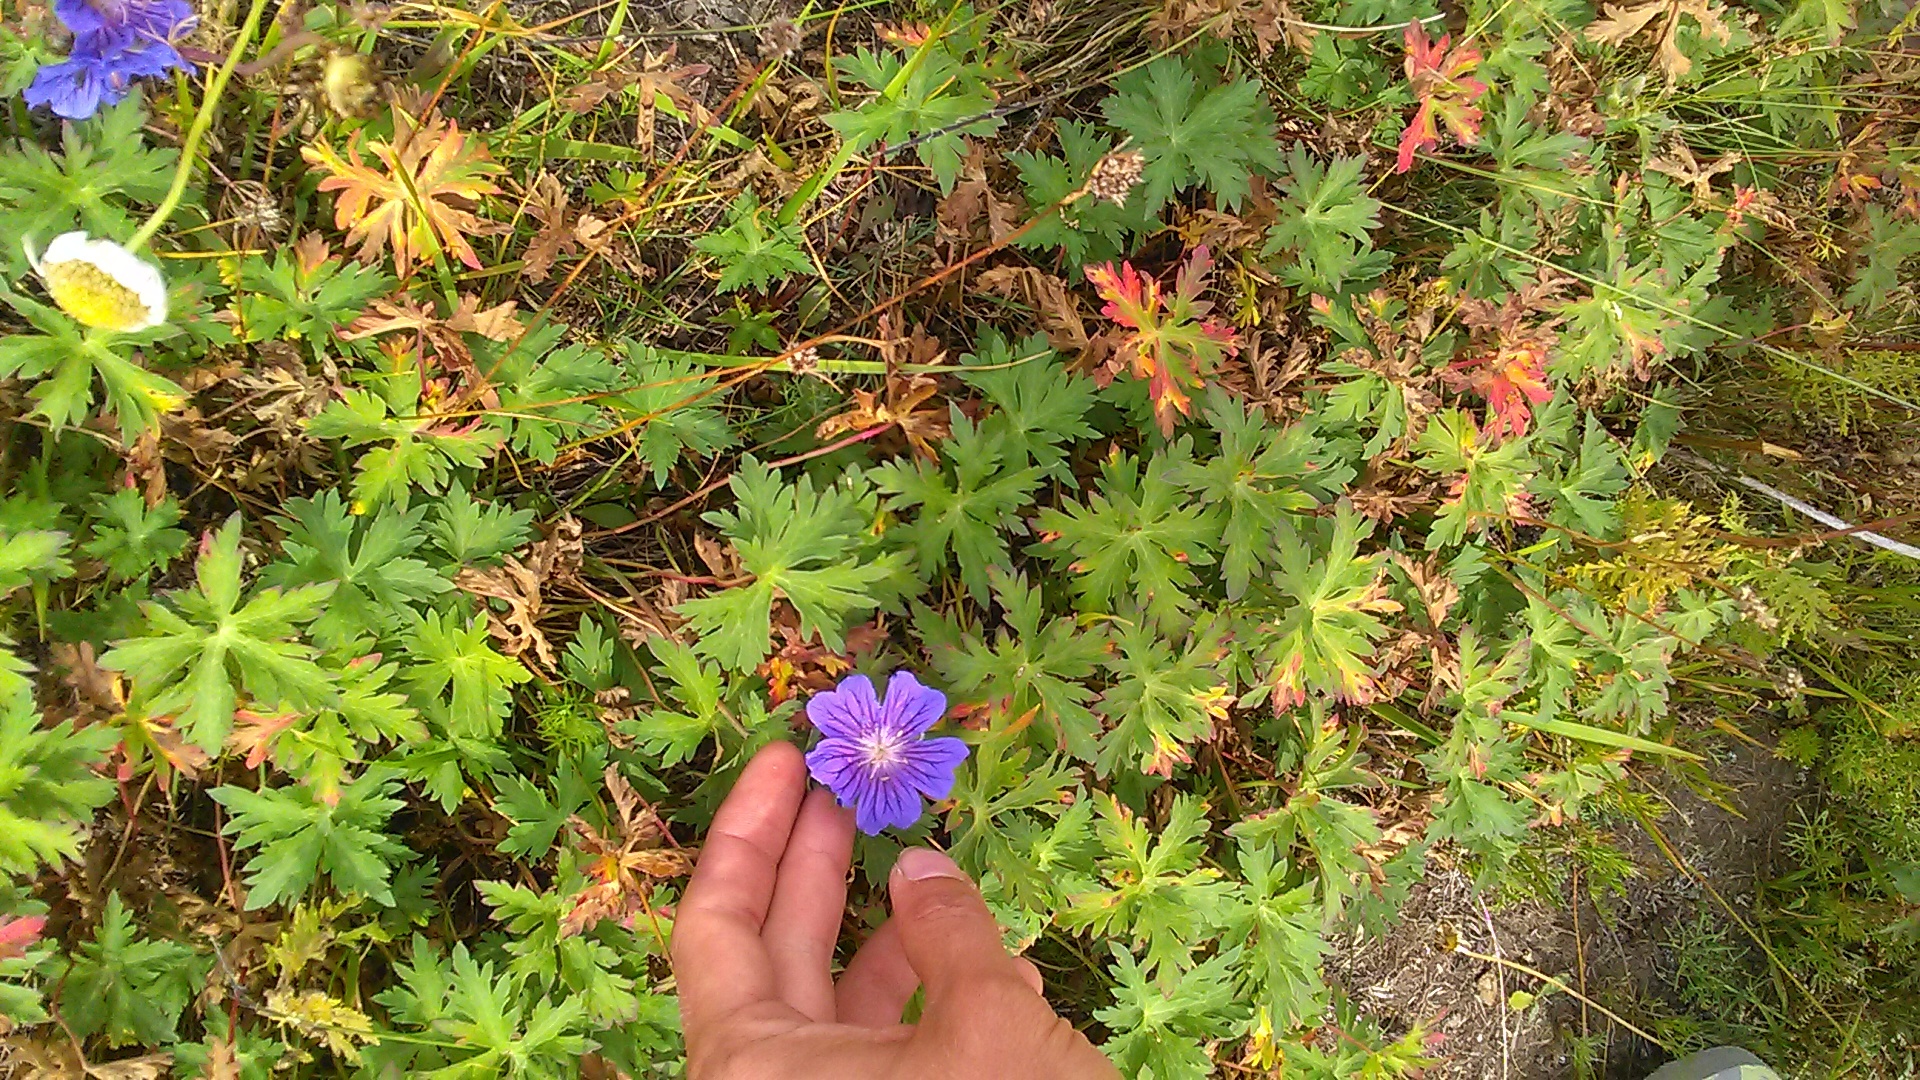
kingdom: Plantae
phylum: Tracheophyta
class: Magnoliopsida
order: Geraniales
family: Geraniaceae
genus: Geranium
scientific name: Geranium gymnocaulon
